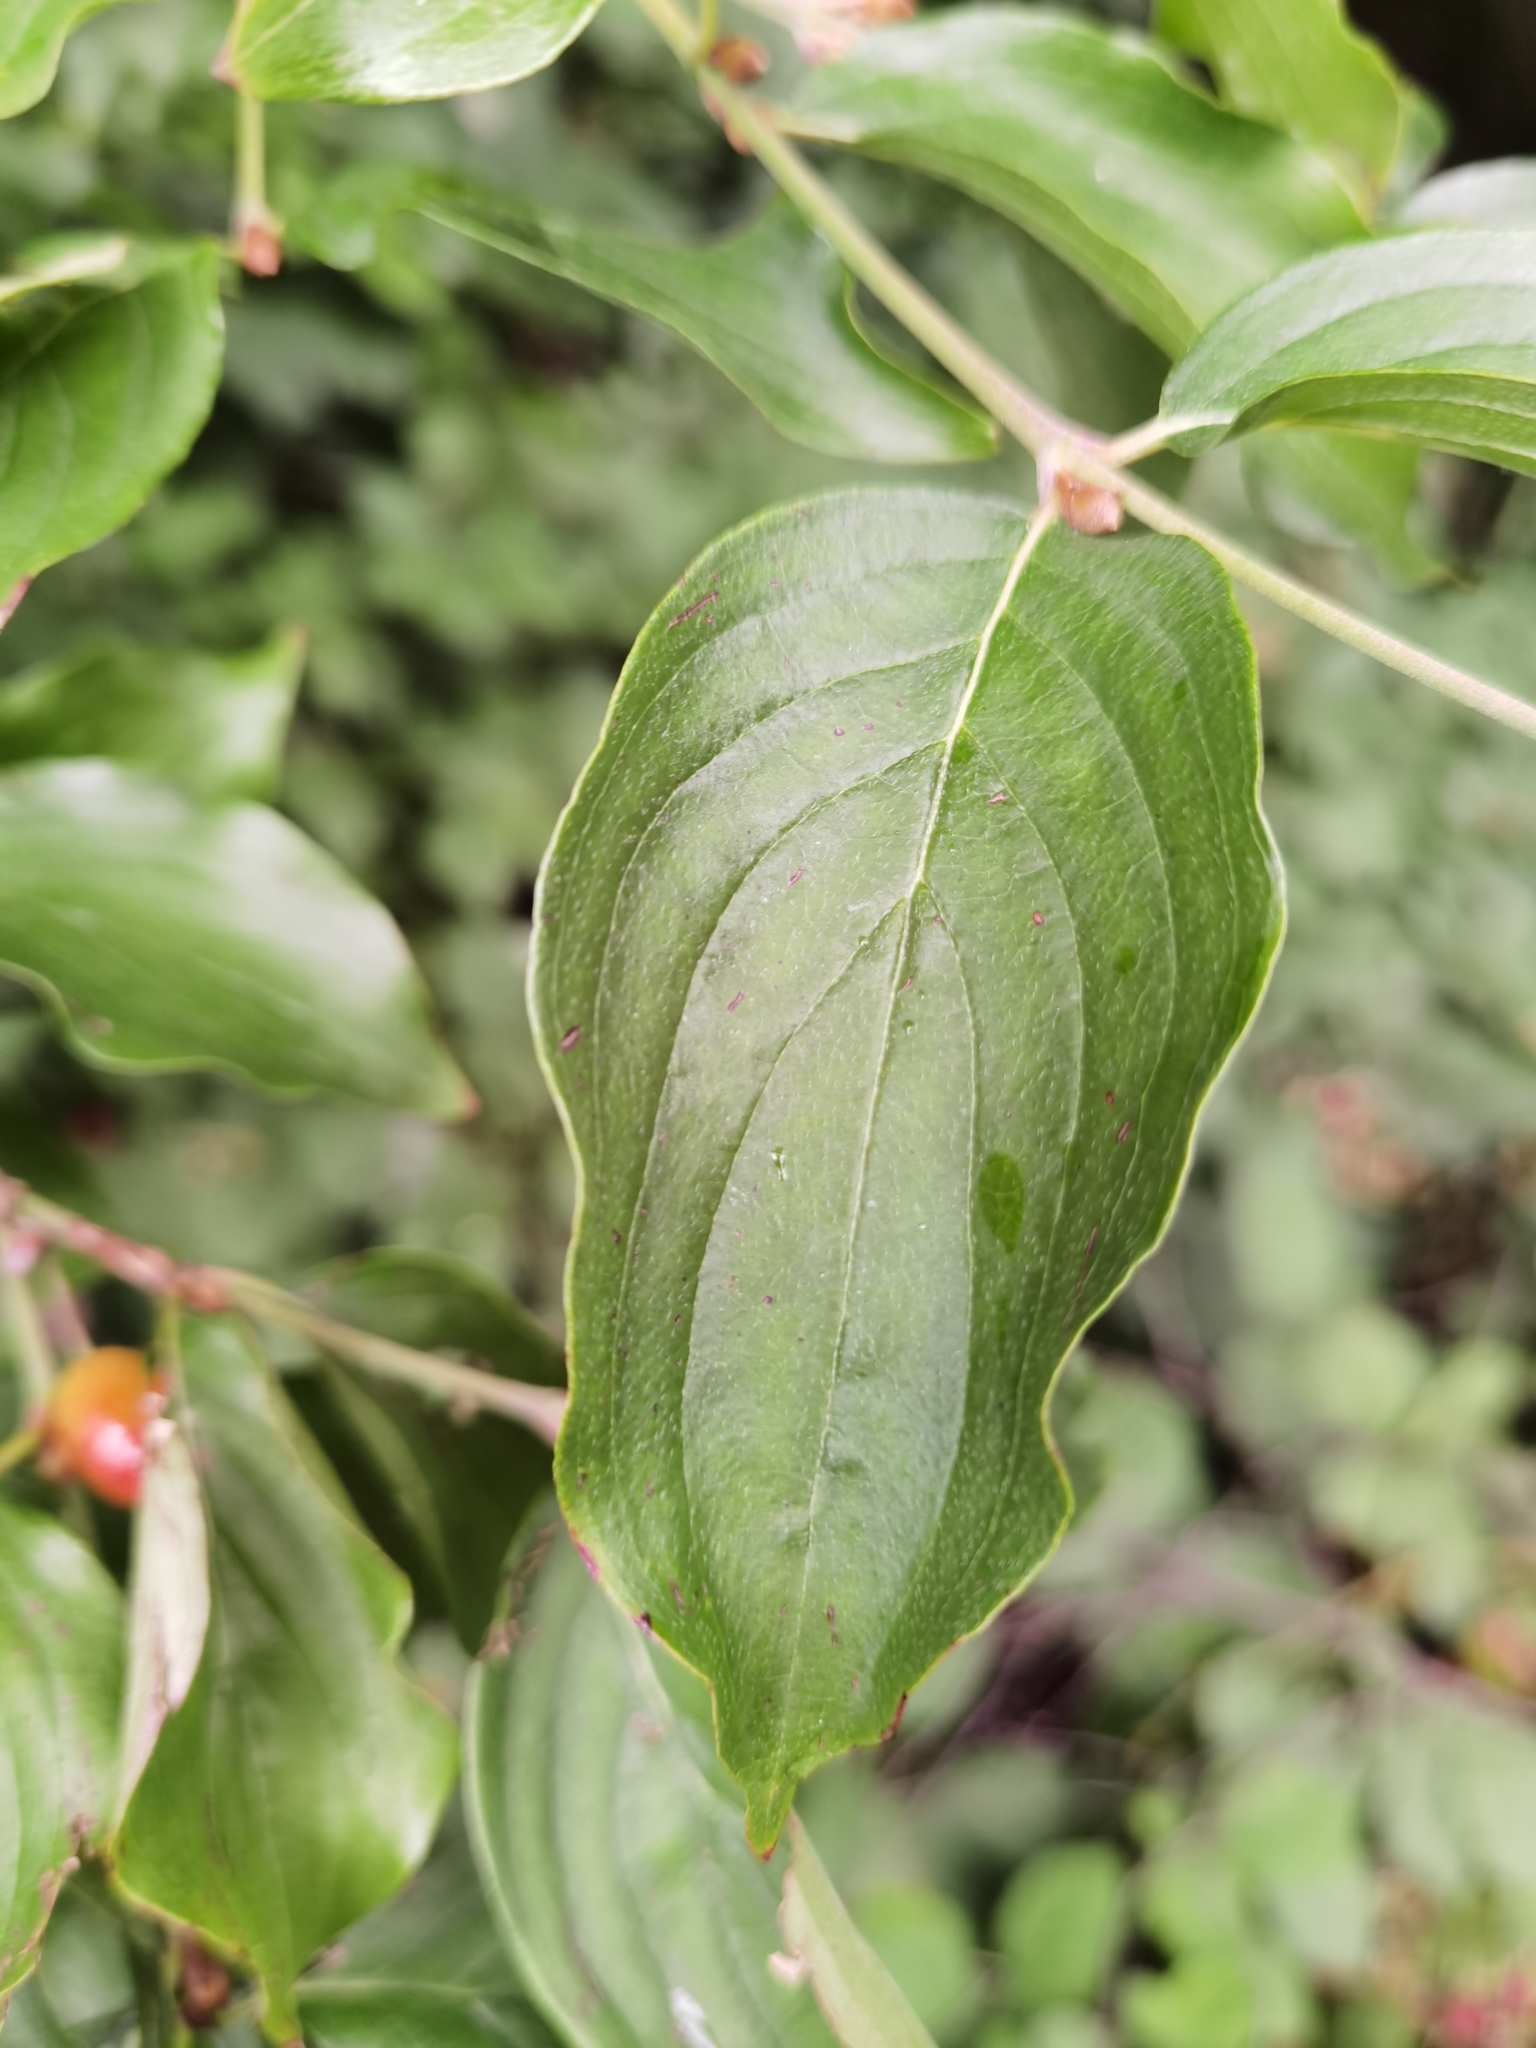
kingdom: Plantae
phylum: Tracheophyta
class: Magnoliopsida
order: Cornales
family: Cornaceae
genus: Cornus
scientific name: Cornus mas
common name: Cornelian-cherry
